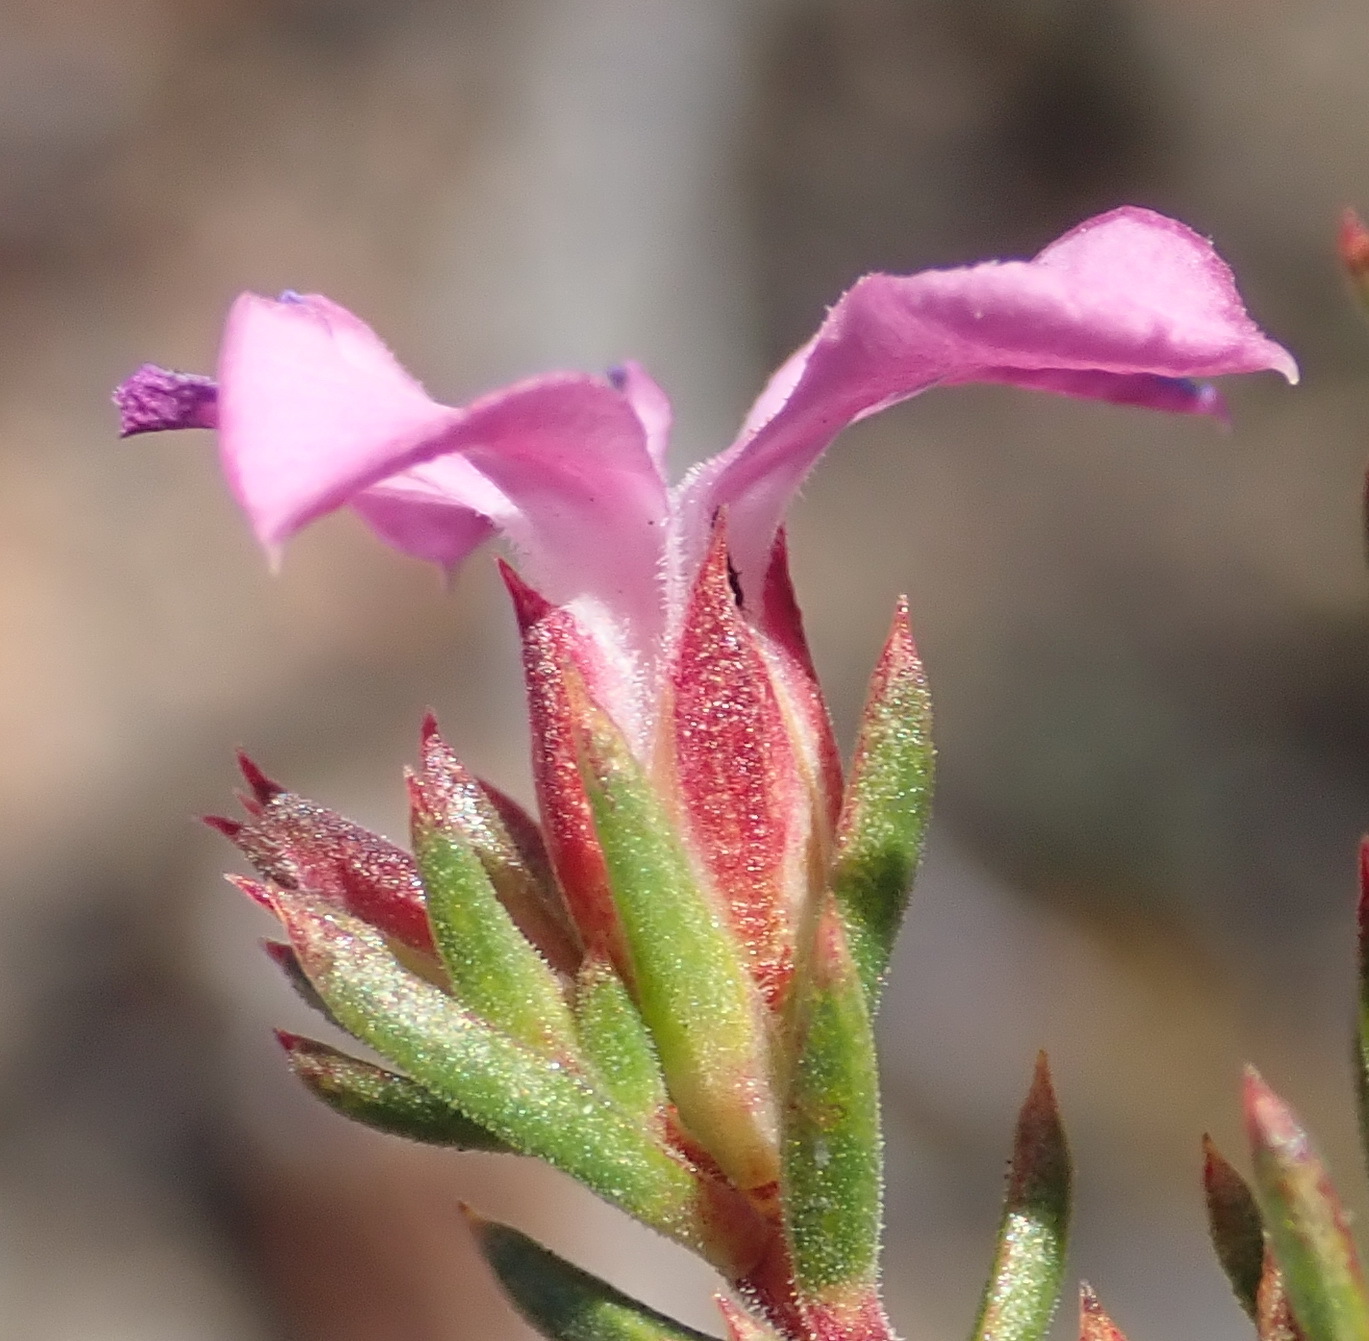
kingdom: Plantae
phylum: Tracheophyta
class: Magnoliopsida
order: Sapindales
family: Rutaceae
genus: Acmadenia
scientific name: Acmadenia maculata
